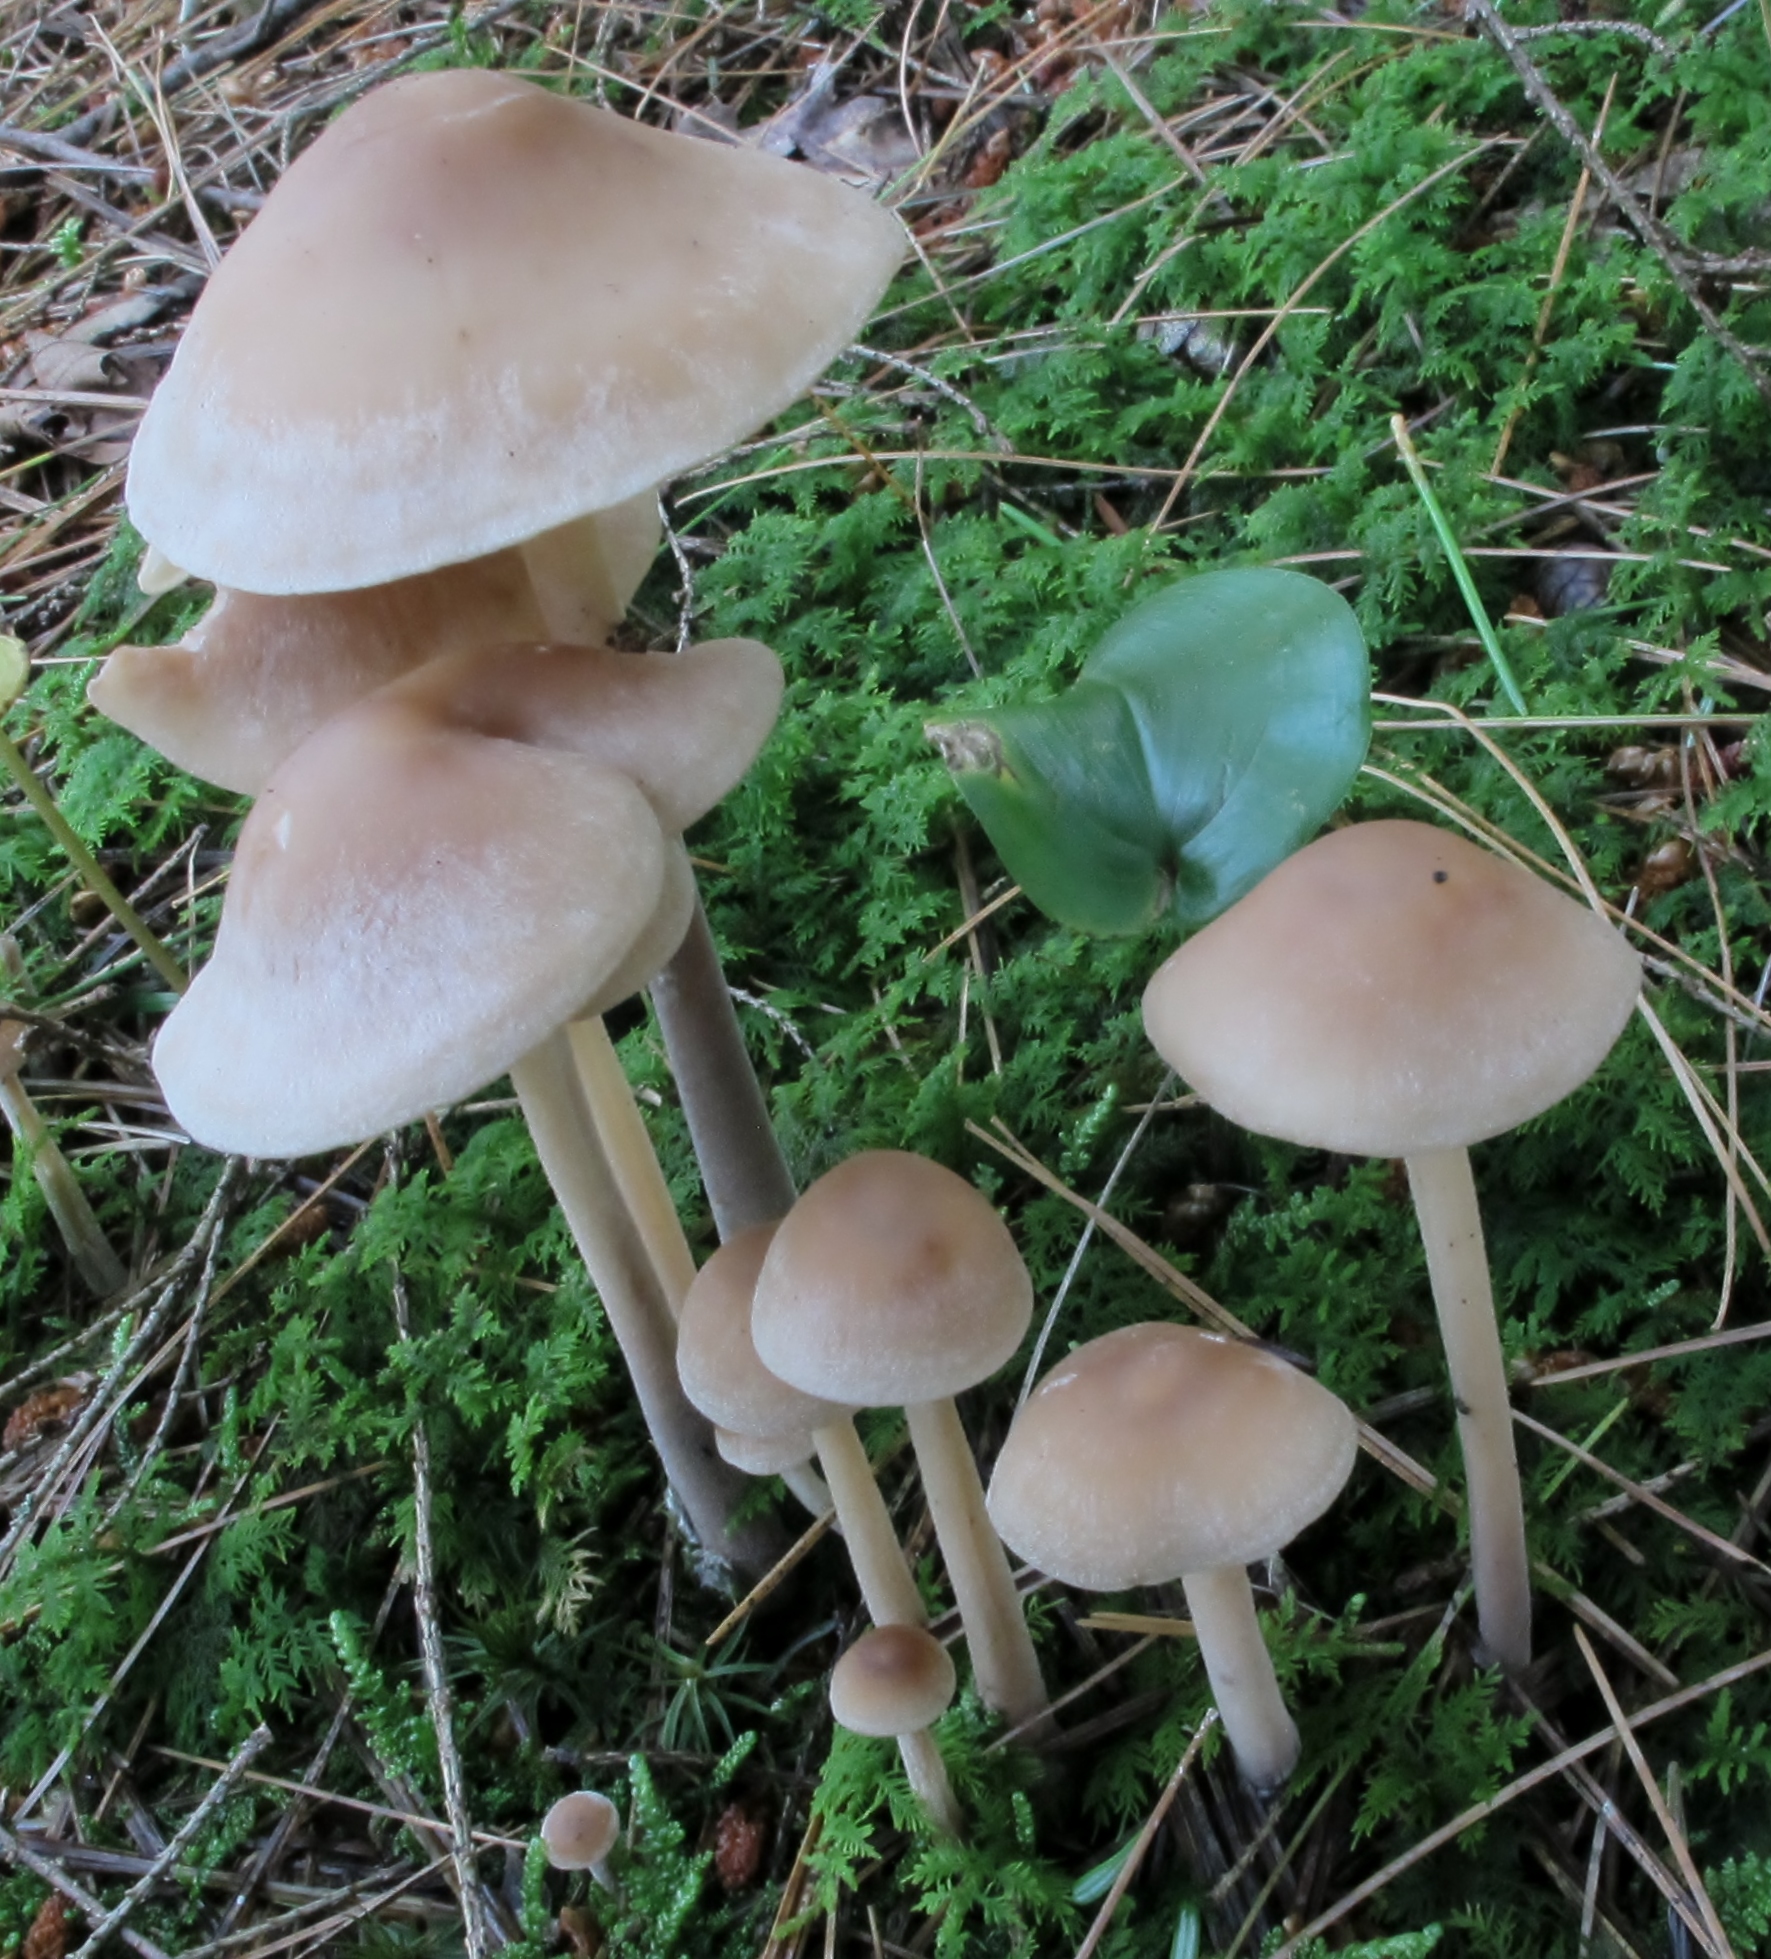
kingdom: Fungi
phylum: Basidiomycota
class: Agaricomycetes
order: Agaricales
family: Omphalotaceae
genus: Collybiopsis
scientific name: Collybiopsis confluens
